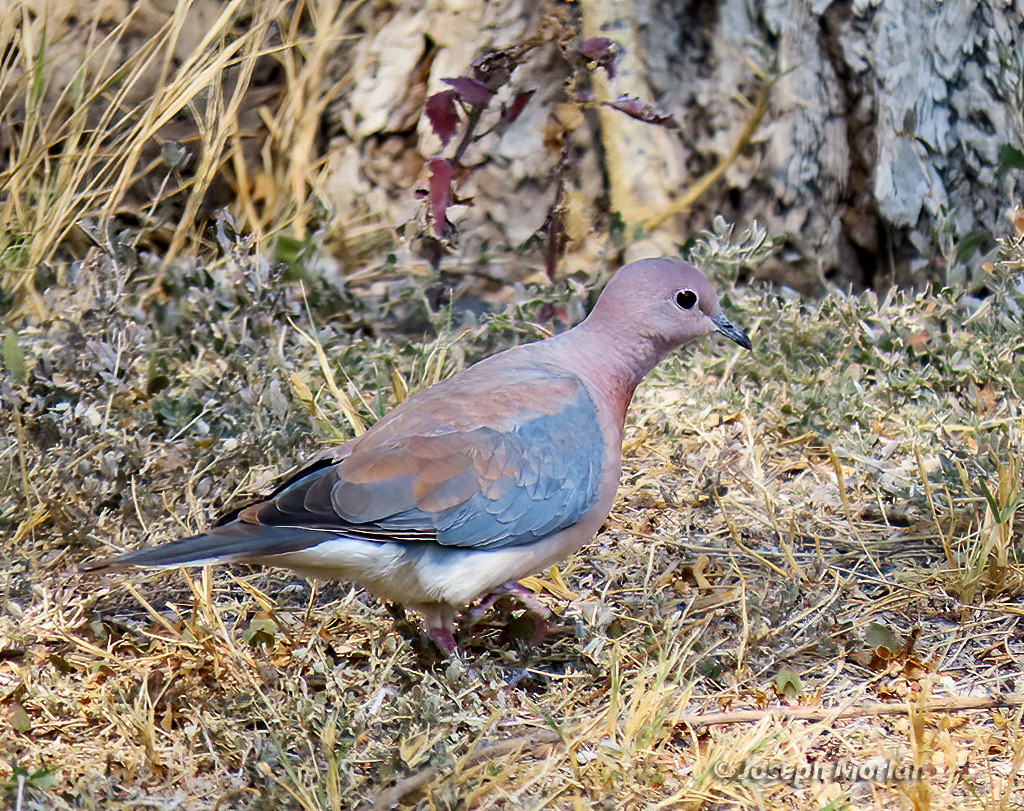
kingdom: Animalia
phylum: Chordata
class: Aves
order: Columbiformes
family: Columbidae
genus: Spilopelia
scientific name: Spilopelia senegalensis
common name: Laughing dove
